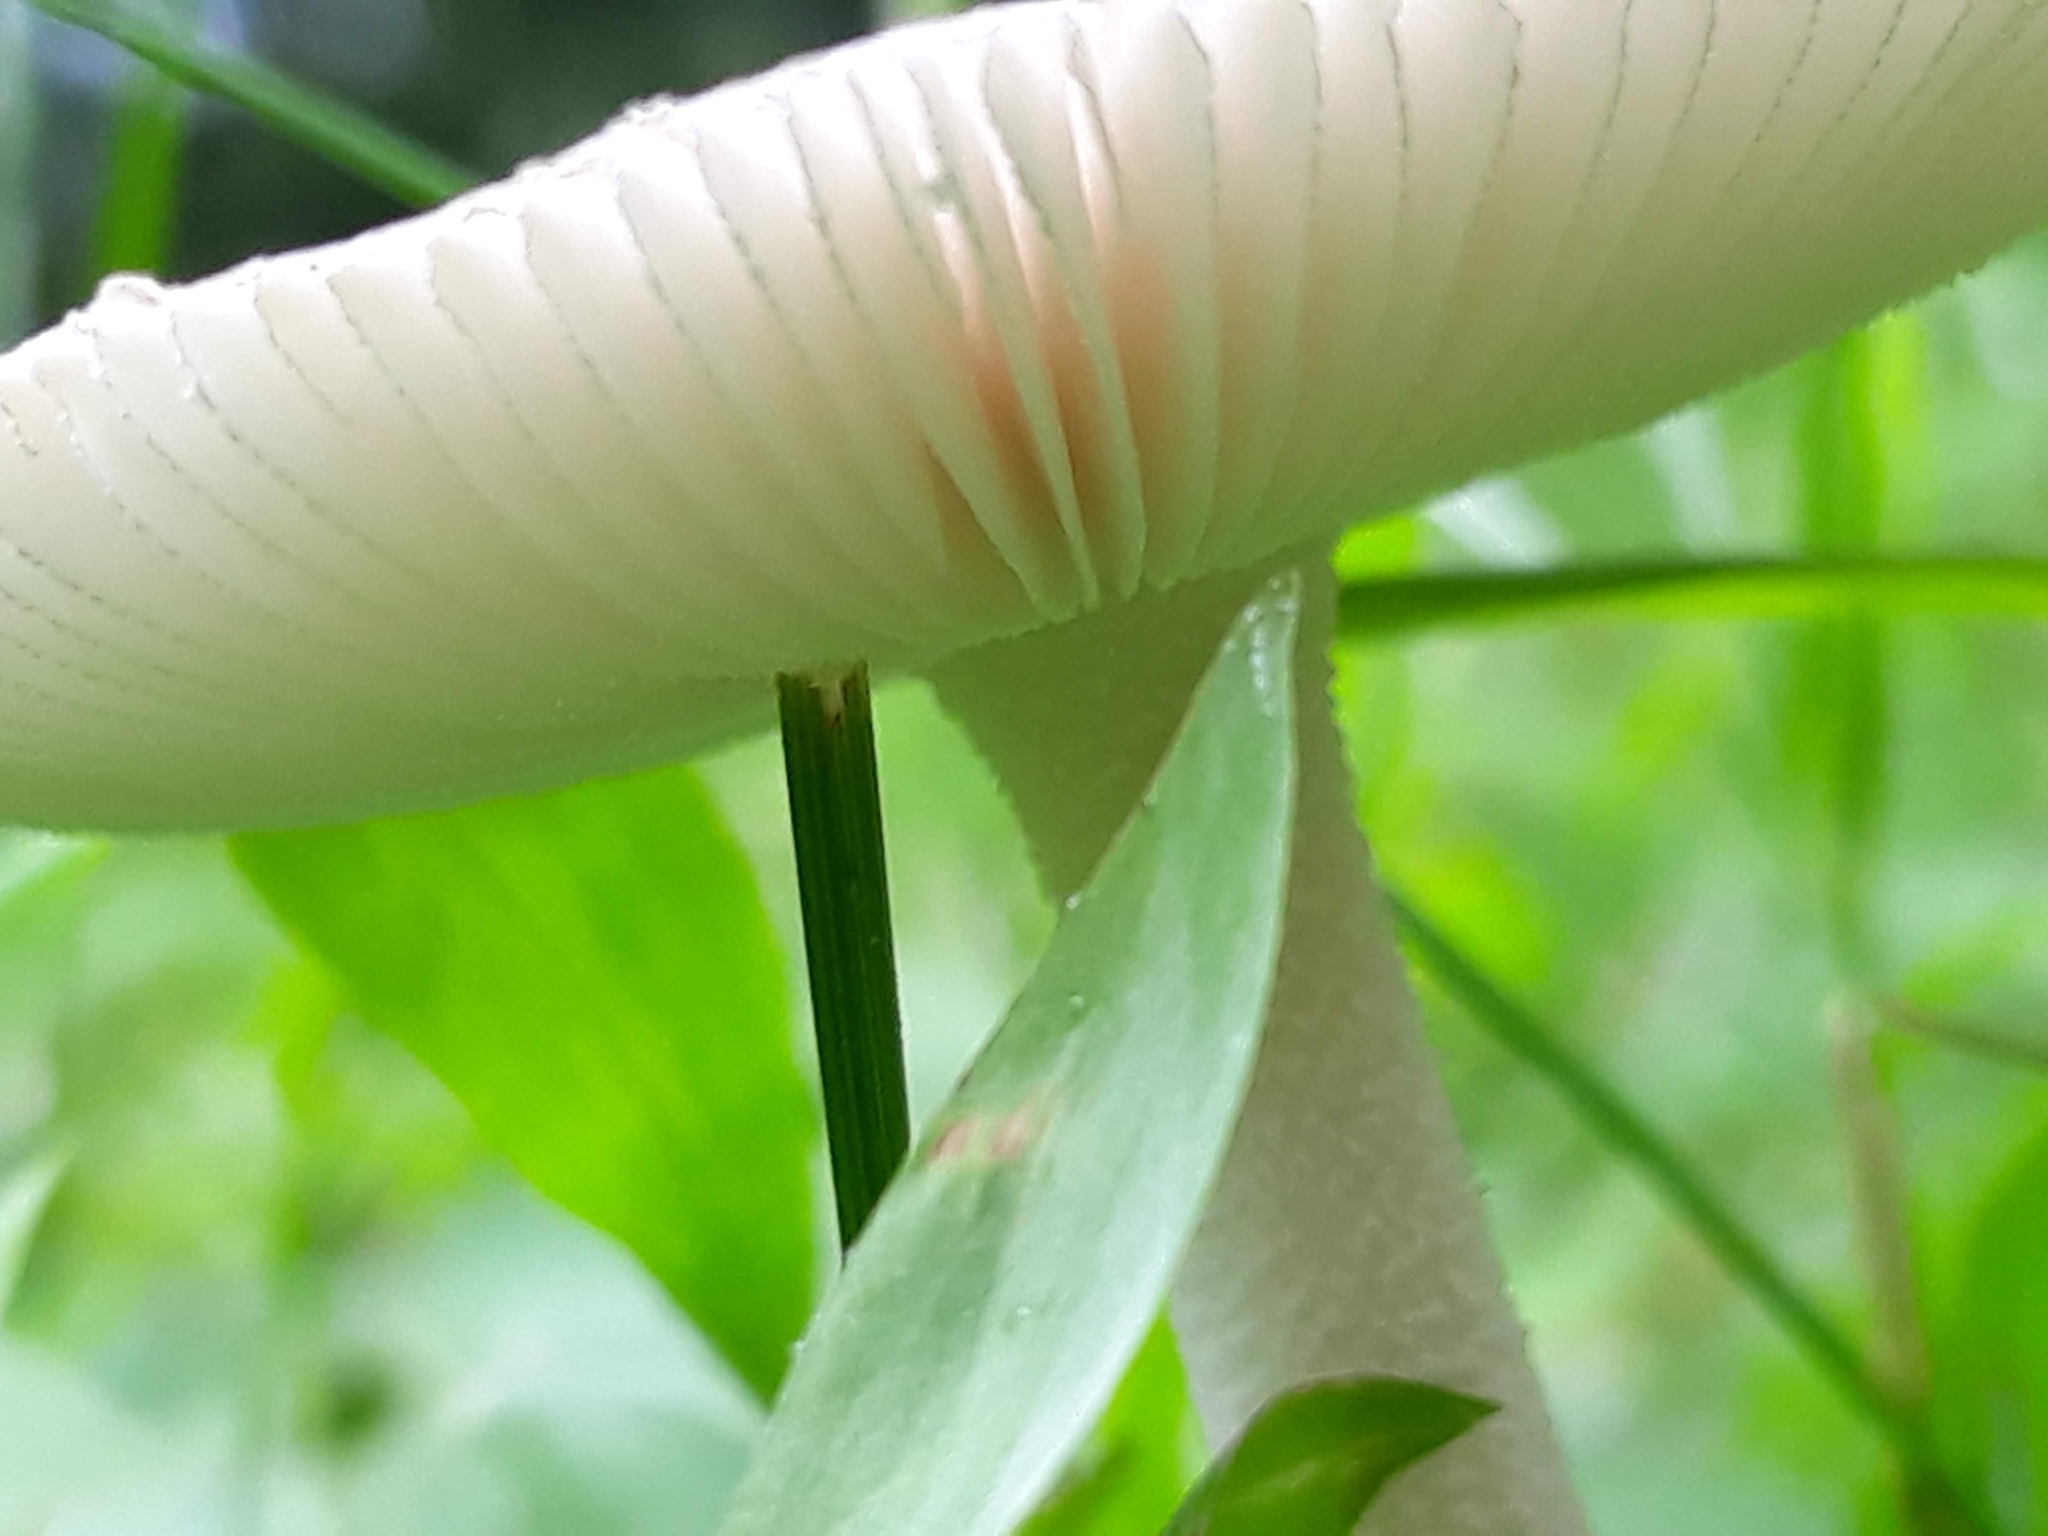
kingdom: Fungi
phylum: Basidiomycota
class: Agaricomycetes
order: Agaricales
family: Amanitaceae
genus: Amanita
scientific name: Amanita
